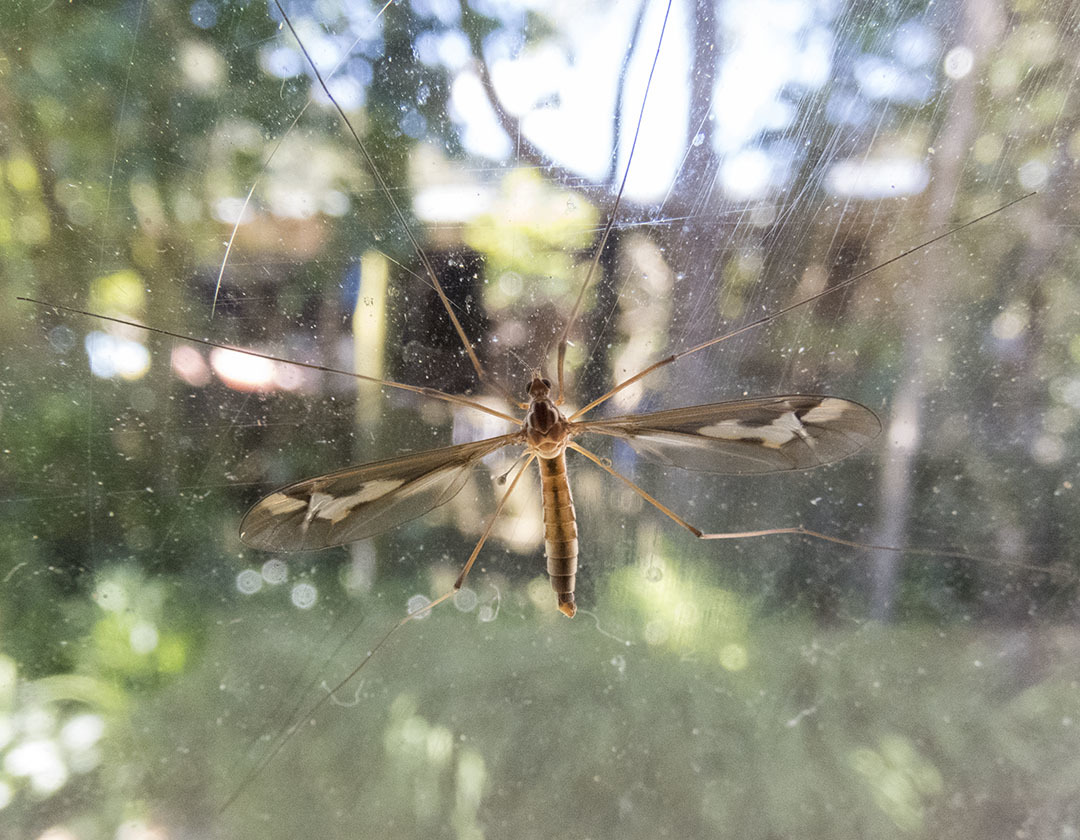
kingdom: Animalia
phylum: Arthropoda
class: Insecta
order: Diptera
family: Tipulidae
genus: Leptotarsus
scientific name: Leptotarsus alexanderi
